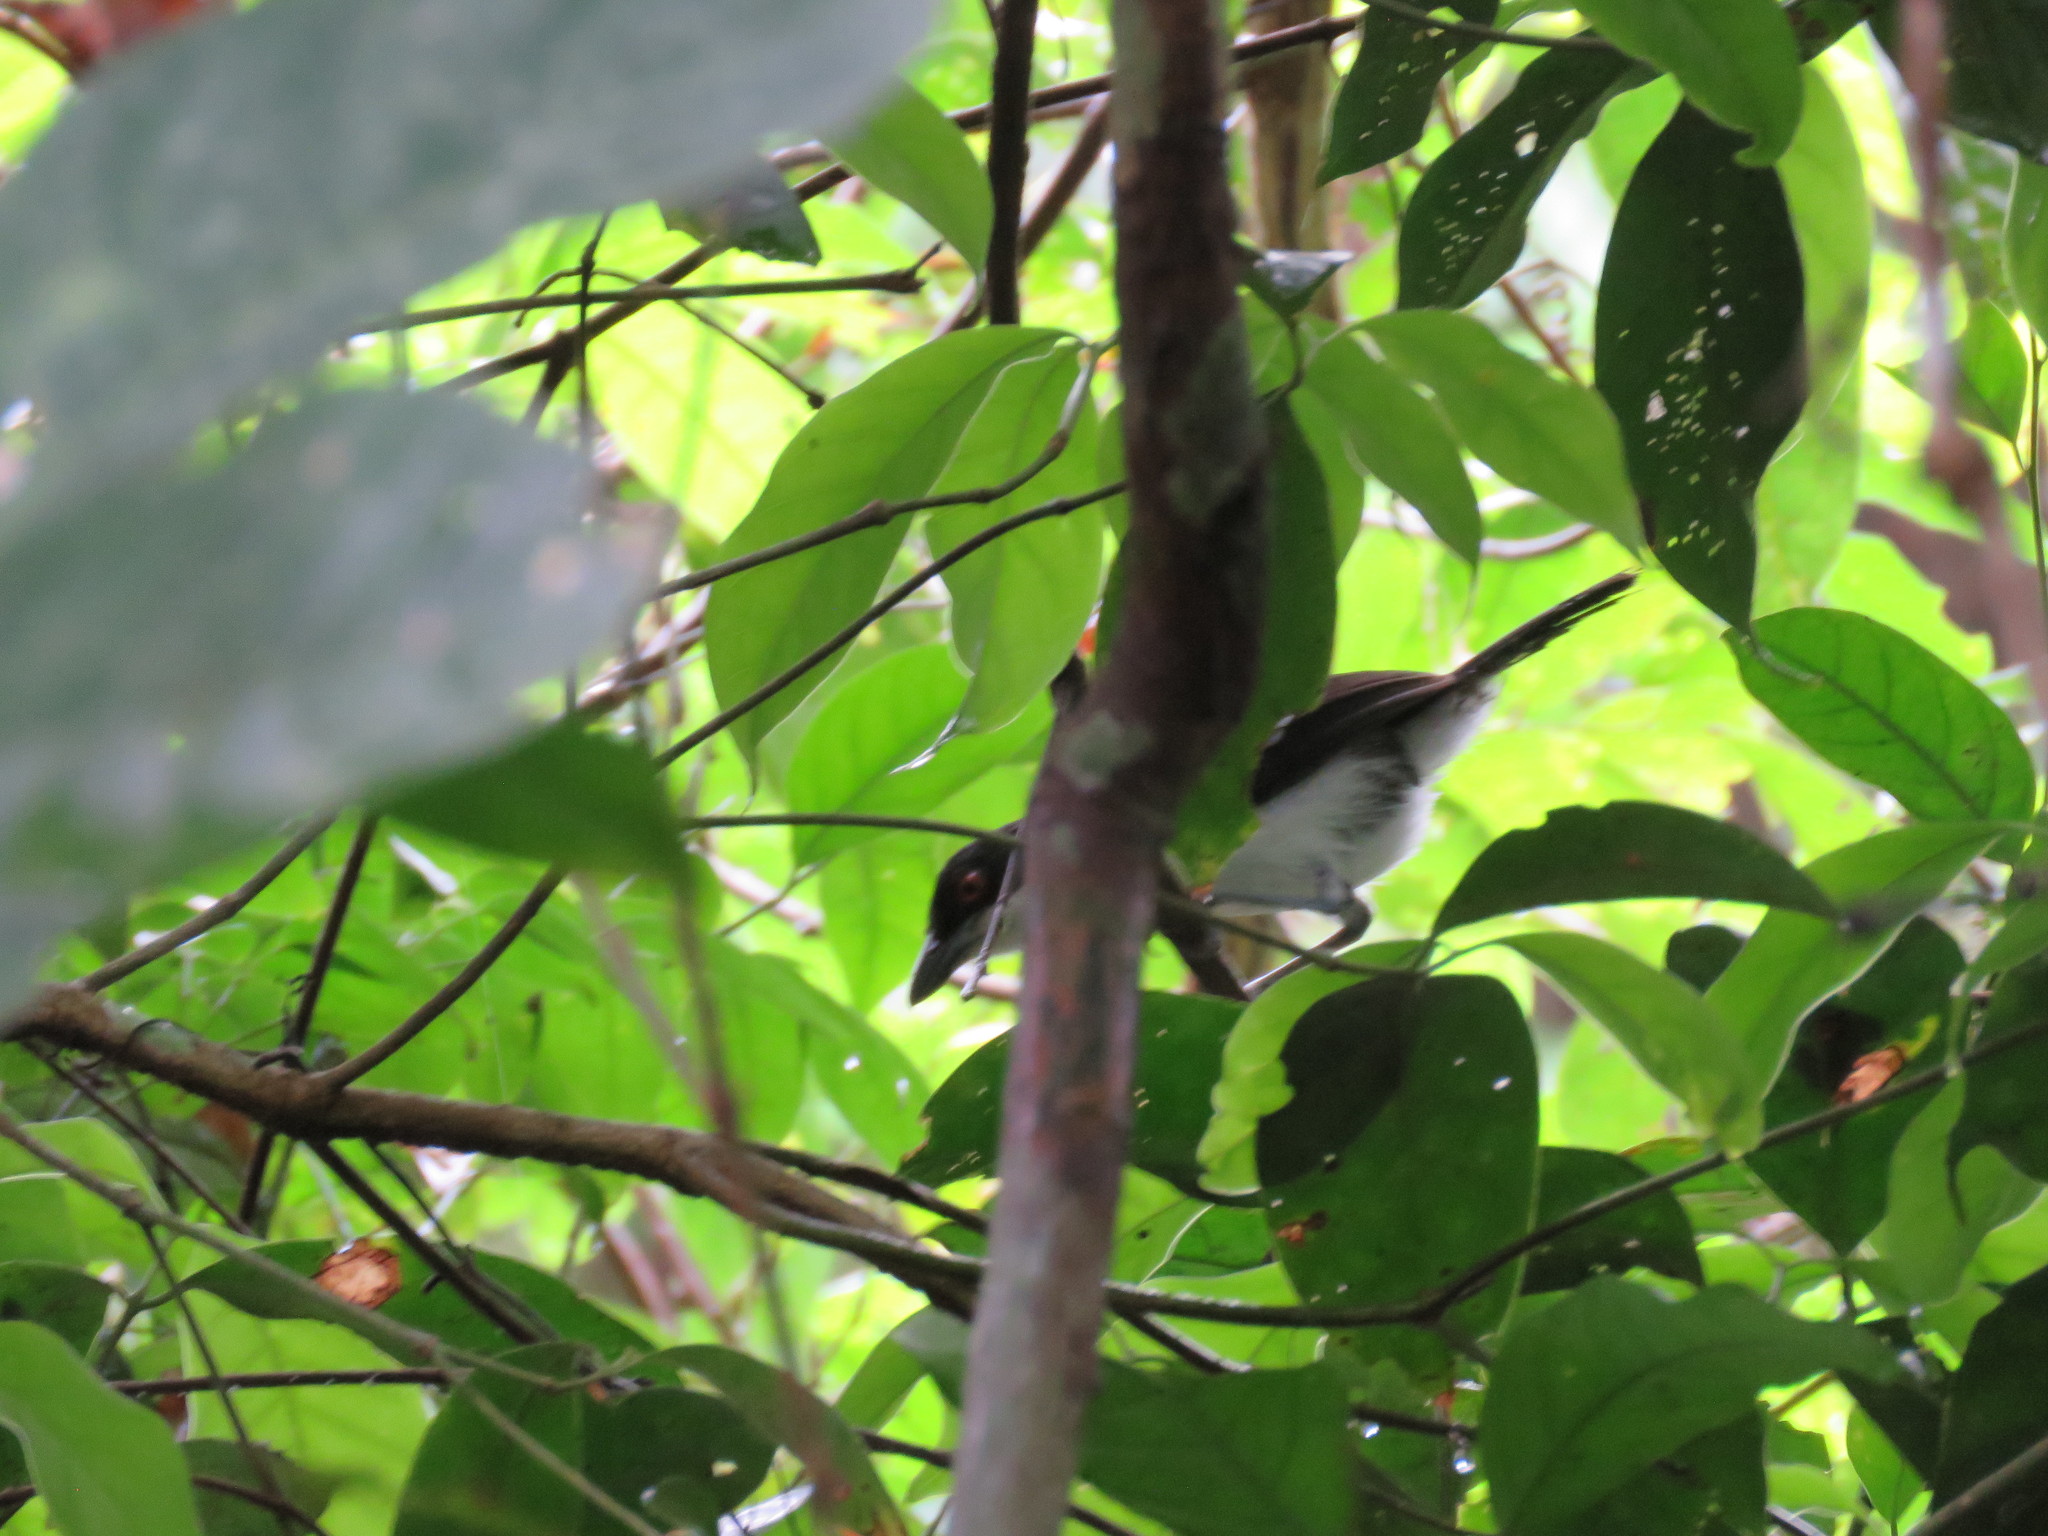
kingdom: Animalia
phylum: Chordata
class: Aves
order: Passeriformes
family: Thamnophilidae
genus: Taraba
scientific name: Taraba major
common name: Great antshrike
